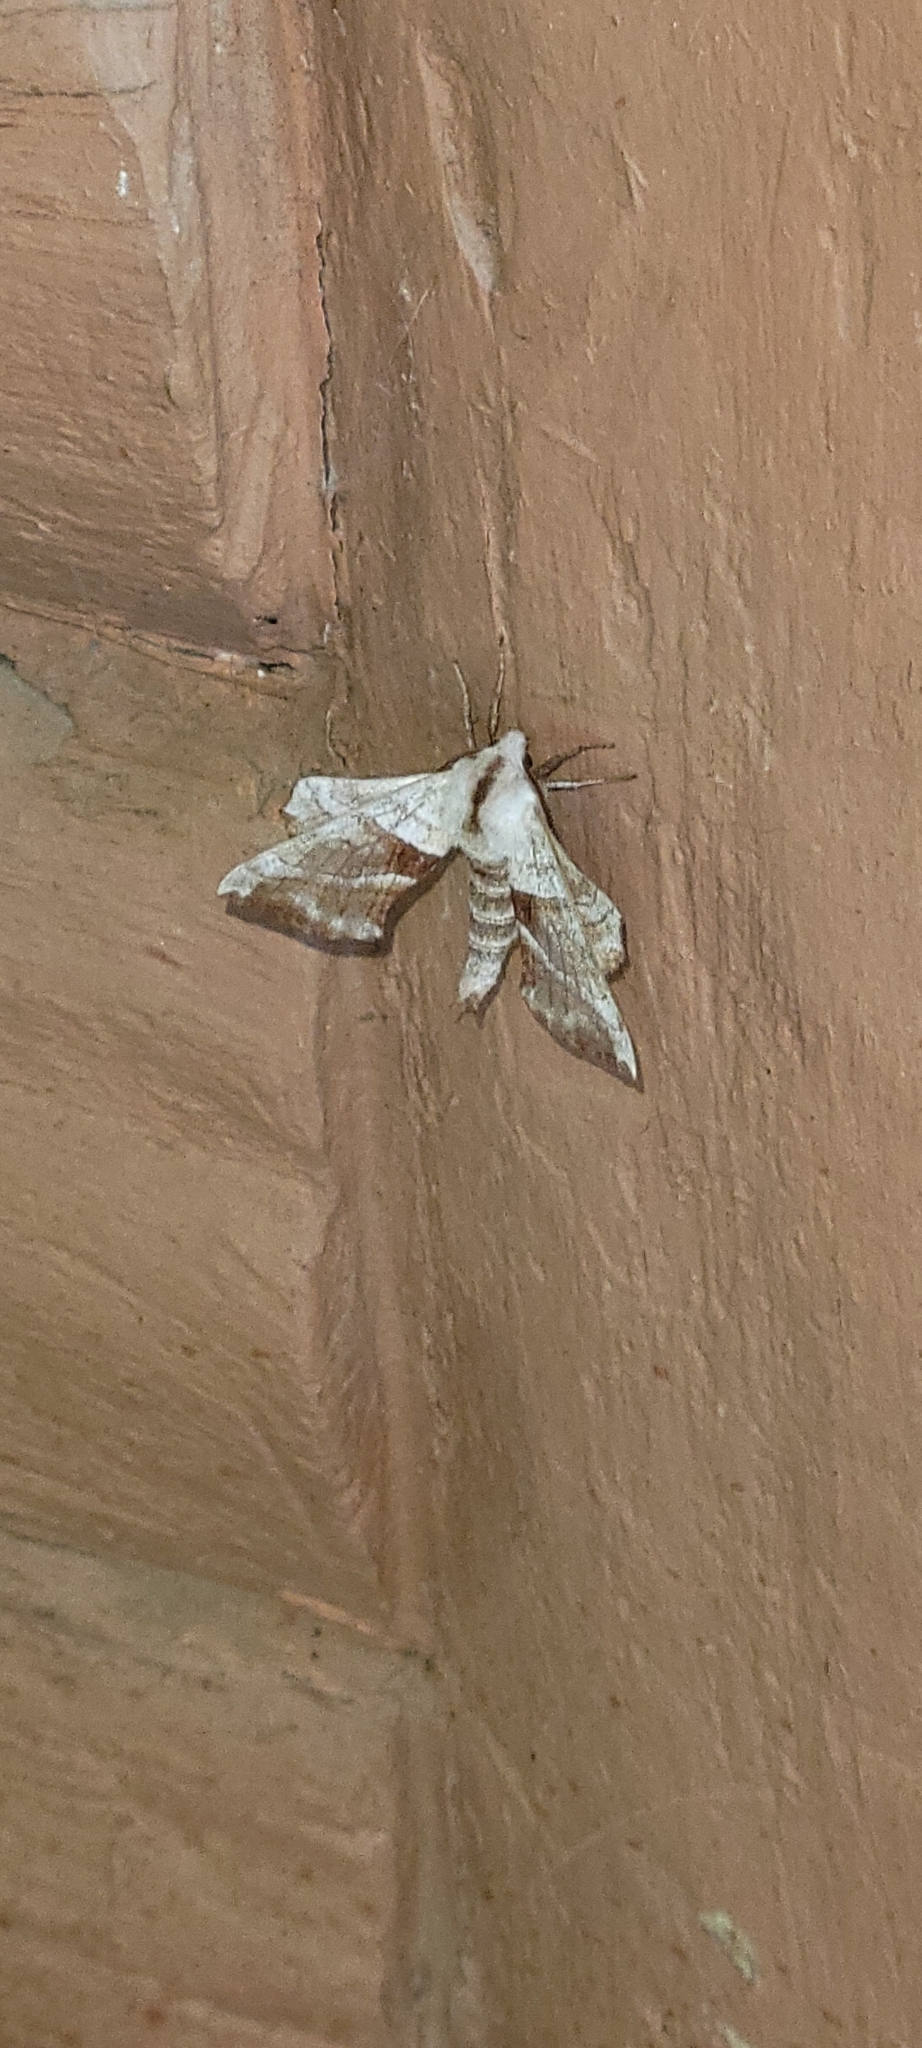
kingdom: Animalia
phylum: Arthropoda
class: Insecta
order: Lepidoptera
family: Sphingidae
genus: Amorpha
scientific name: Amorpha juglandis
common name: Walnut sphinx
